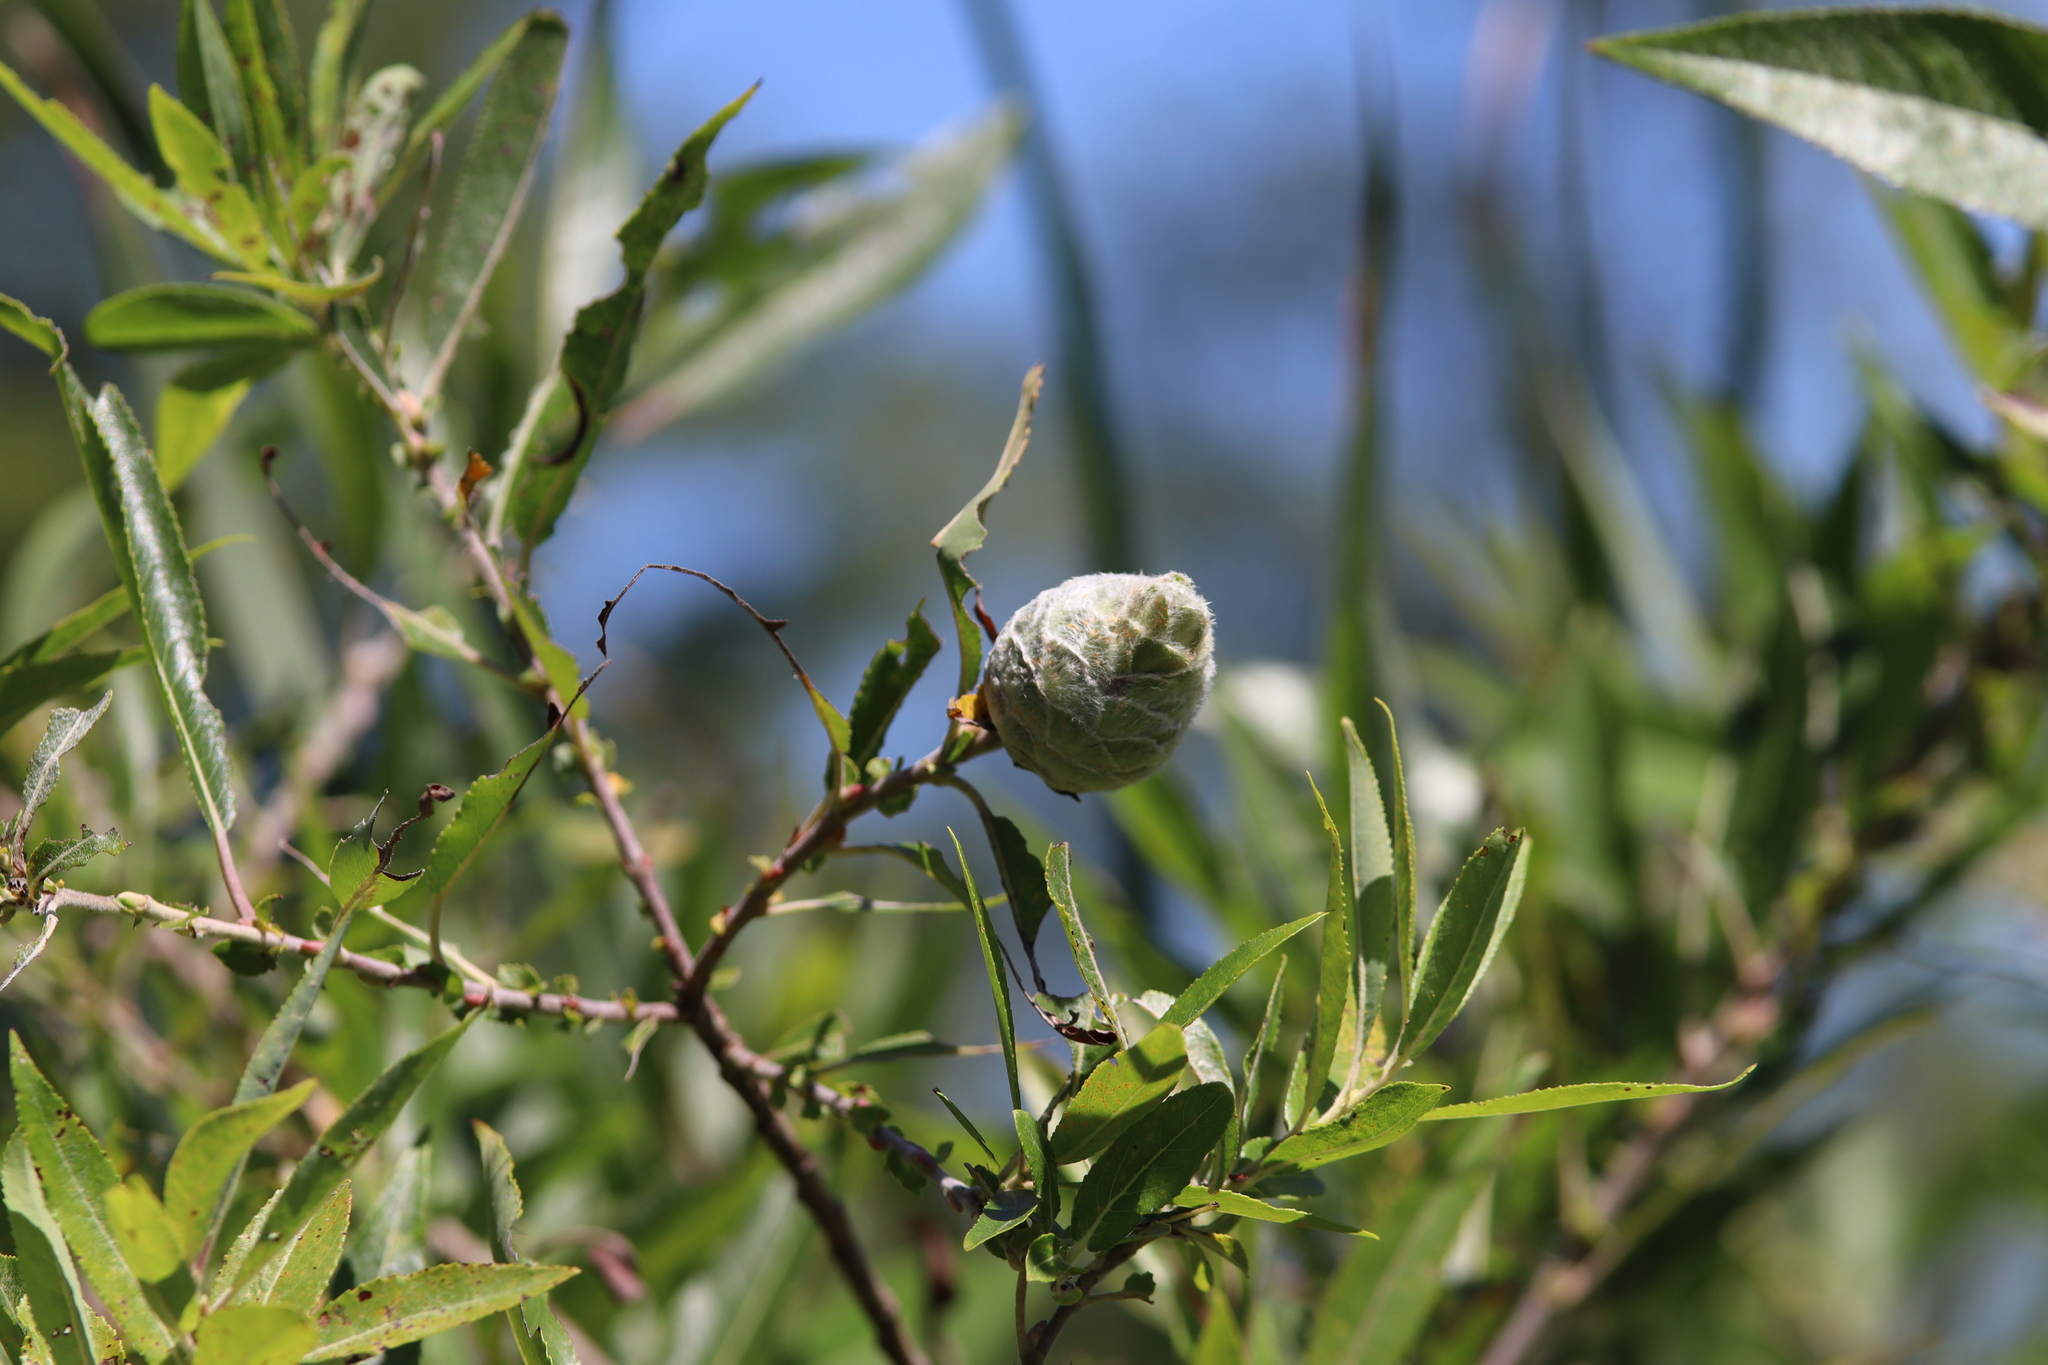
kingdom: Animalia
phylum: Arthropoda
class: Insecta
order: Diptera
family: Cecidomyiidae
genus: Rabdophaga
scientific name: Rabdophaga strobiloides
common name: Willow pinecone gall midge
